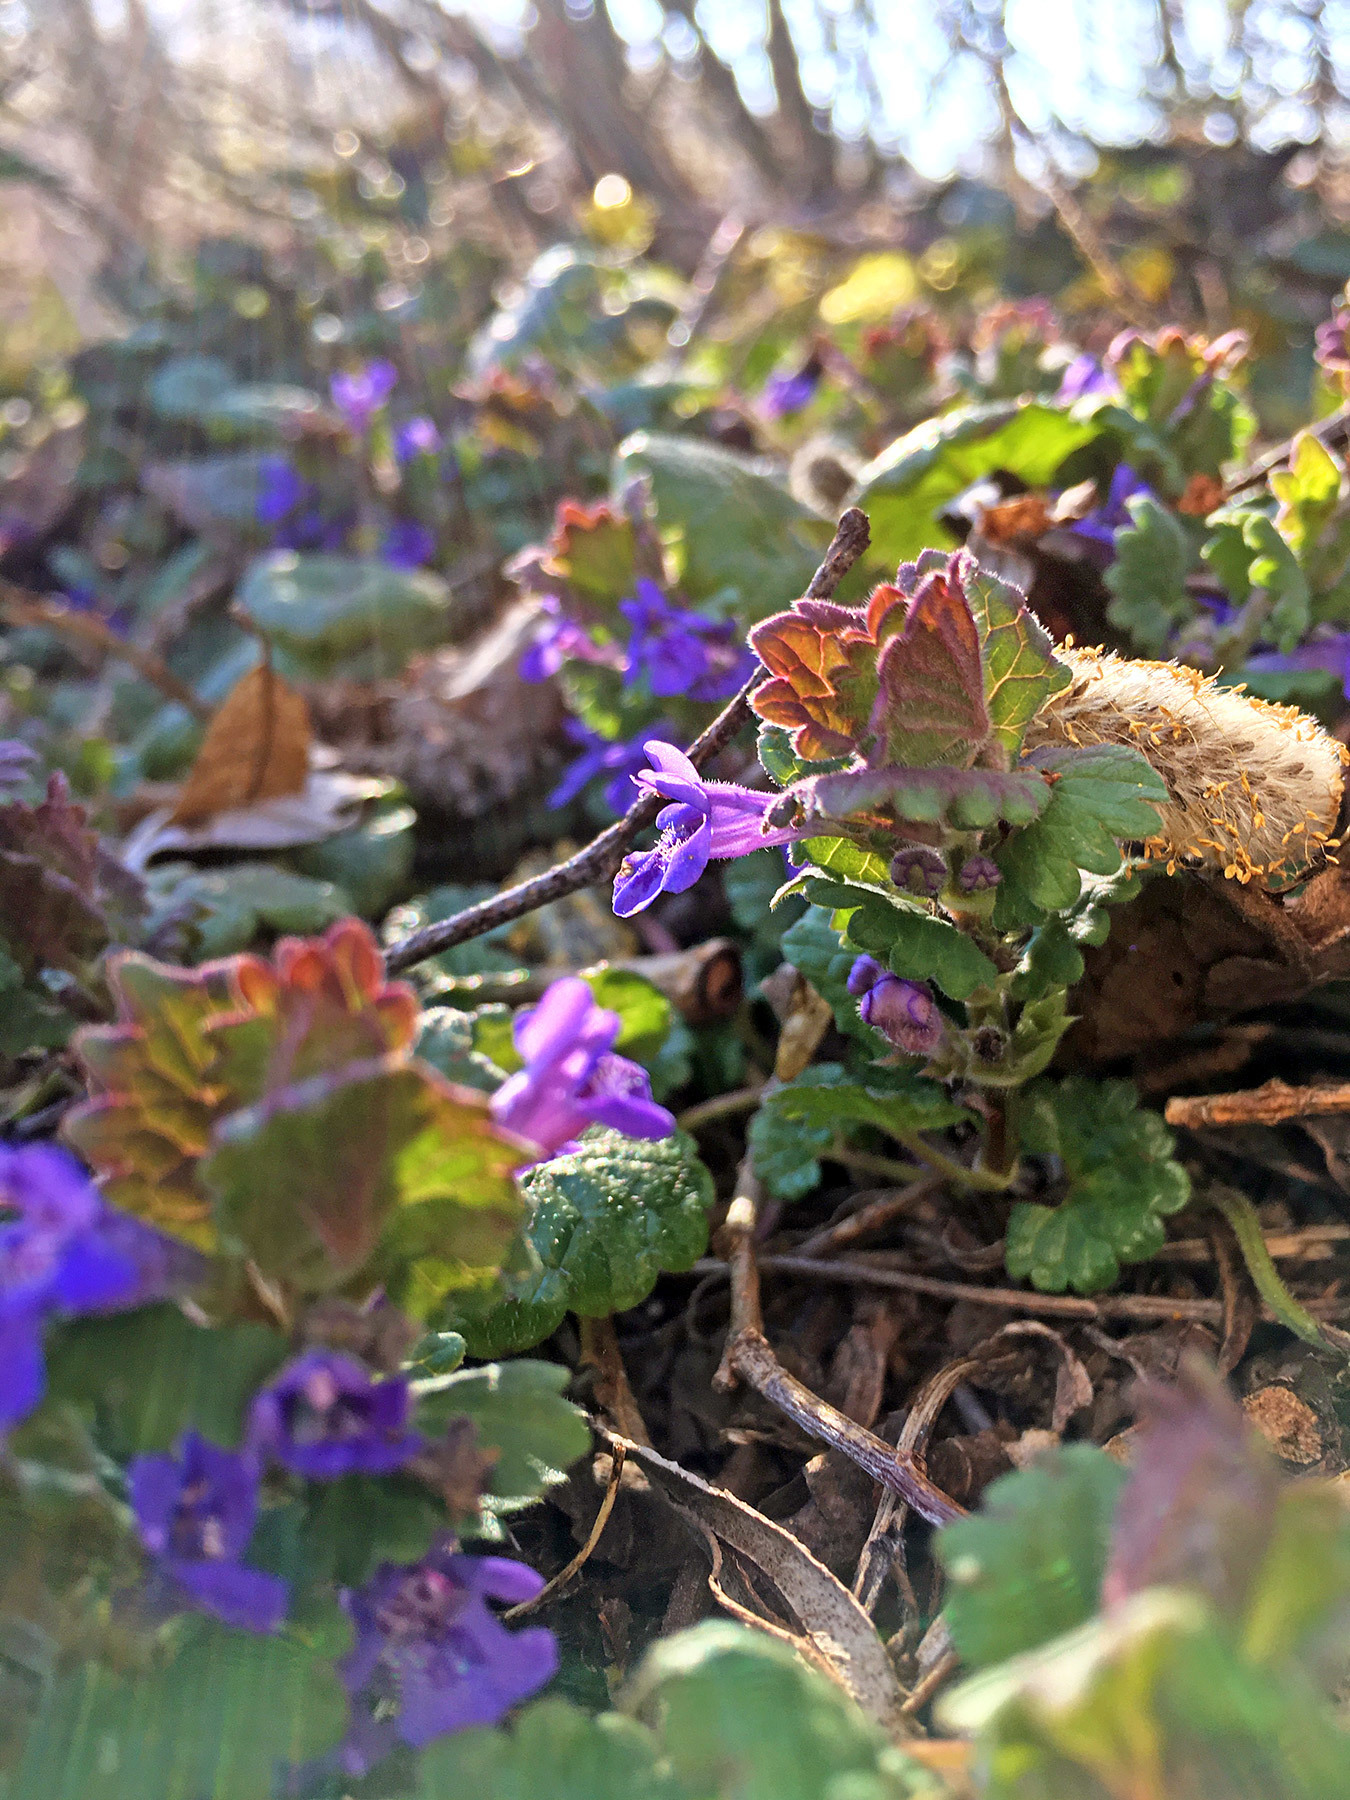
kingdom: Plantae
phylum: Tracheophyta
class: Magnoliopsida
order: Lamiales
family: Lamiaceae
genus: Glechoma
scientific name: Glechoma hederacea
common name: Ground ivy
